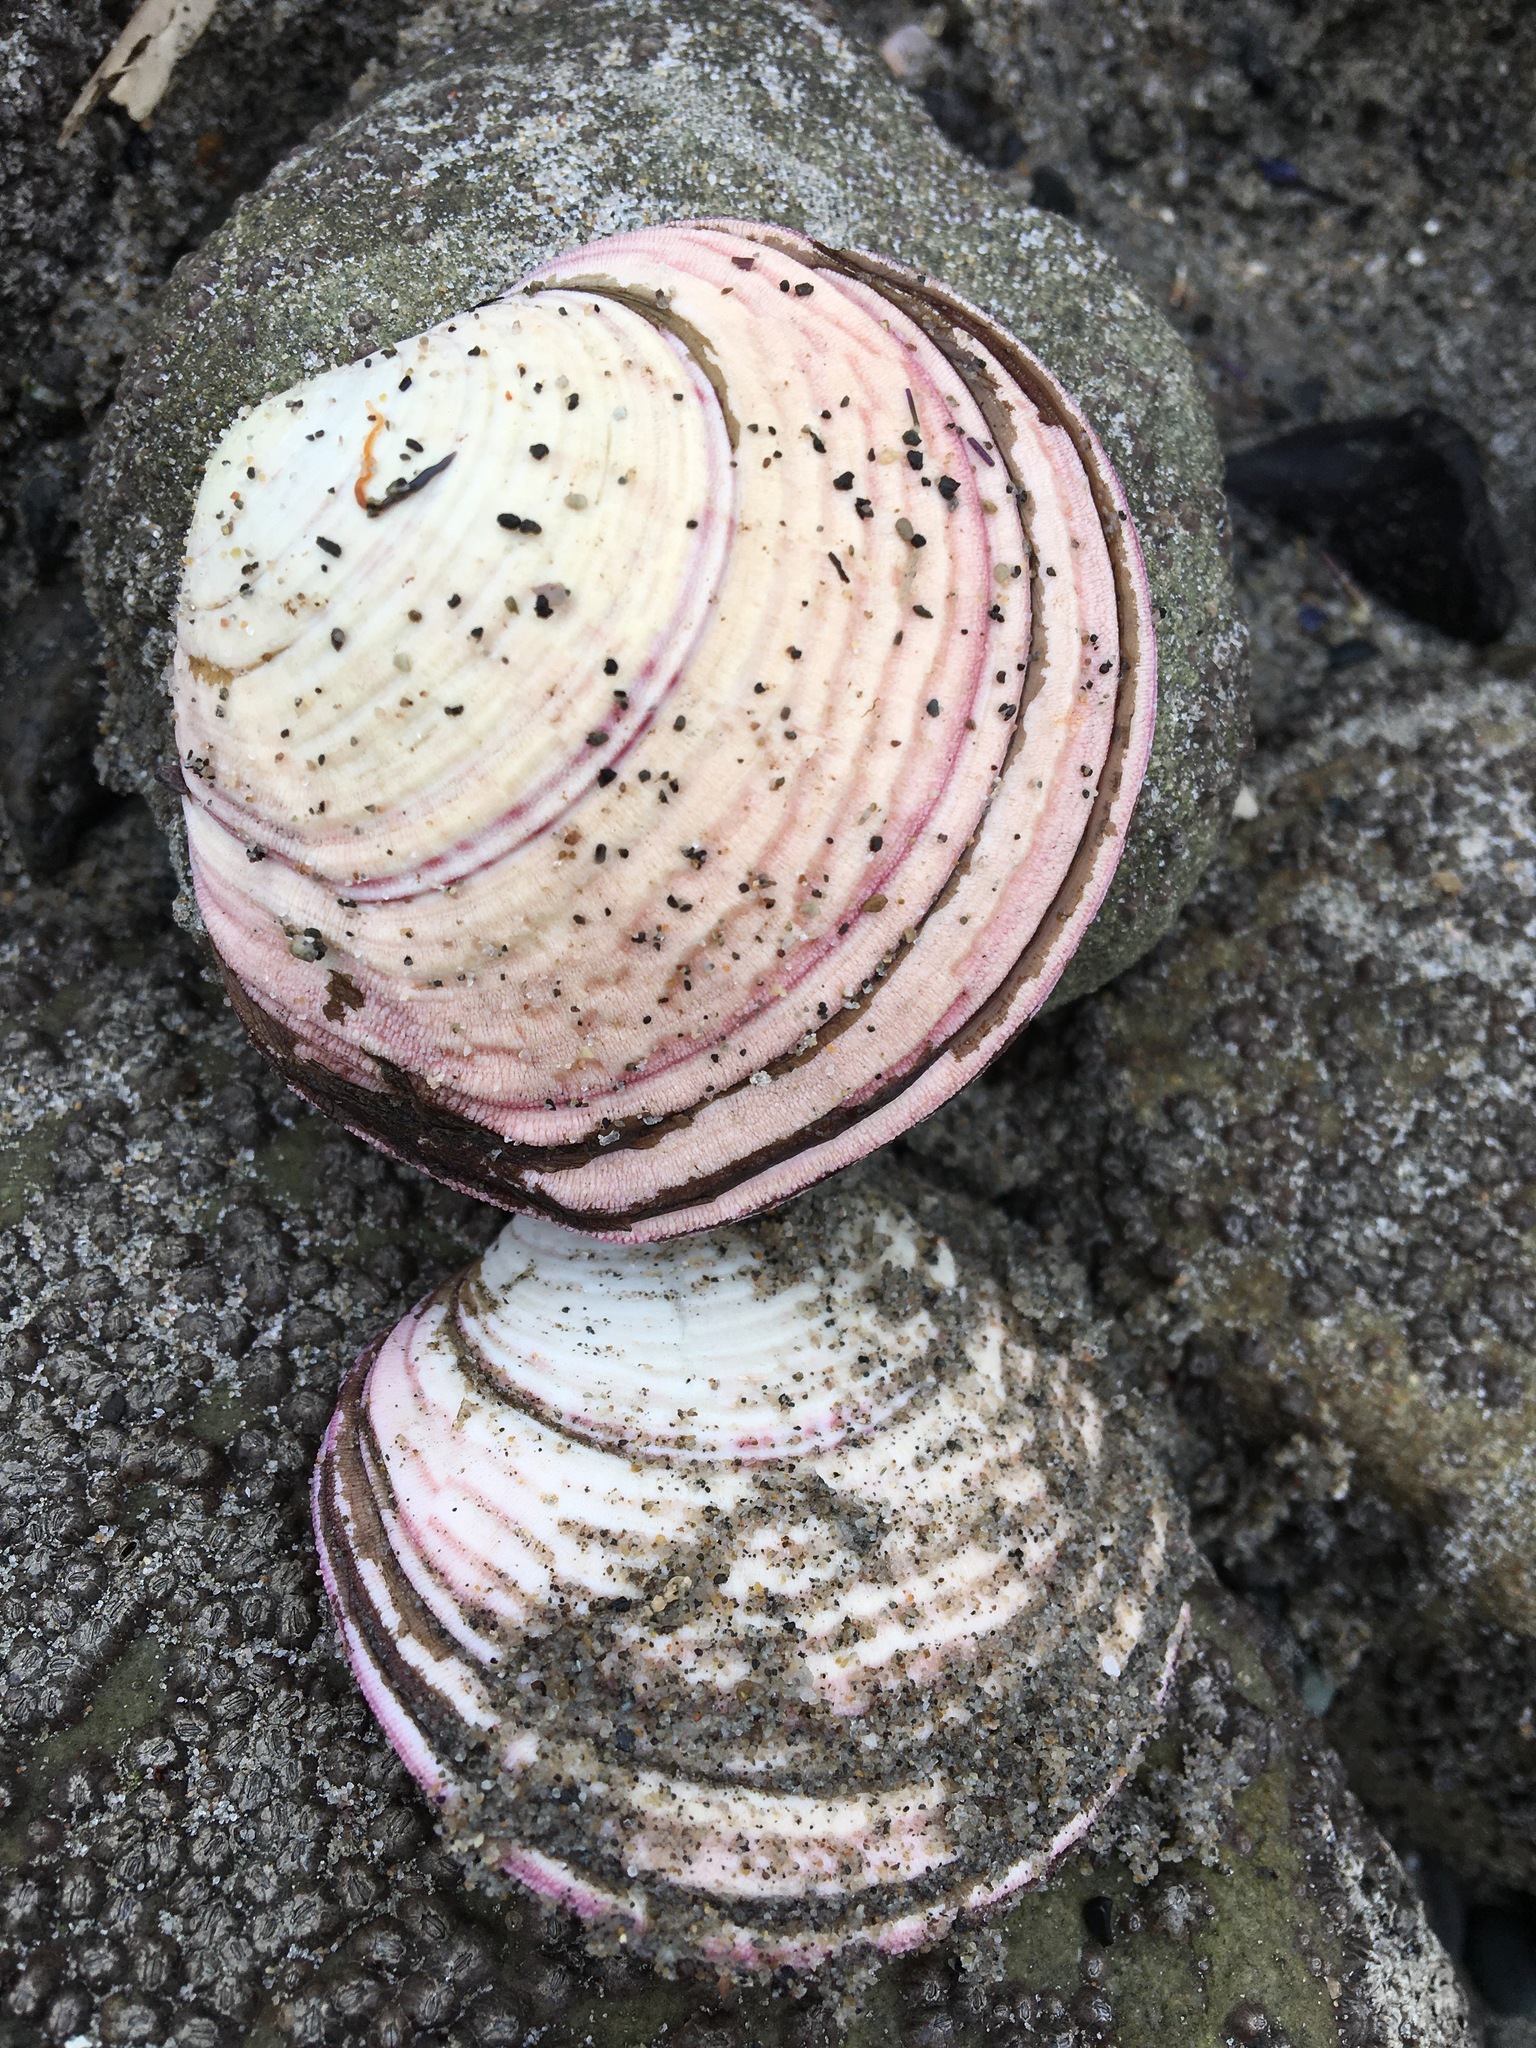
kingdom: Animalia
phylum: Mollusca
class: Bivalvia
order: Cardiida
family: Semelidae
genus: Semele
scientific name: Semele decisa
